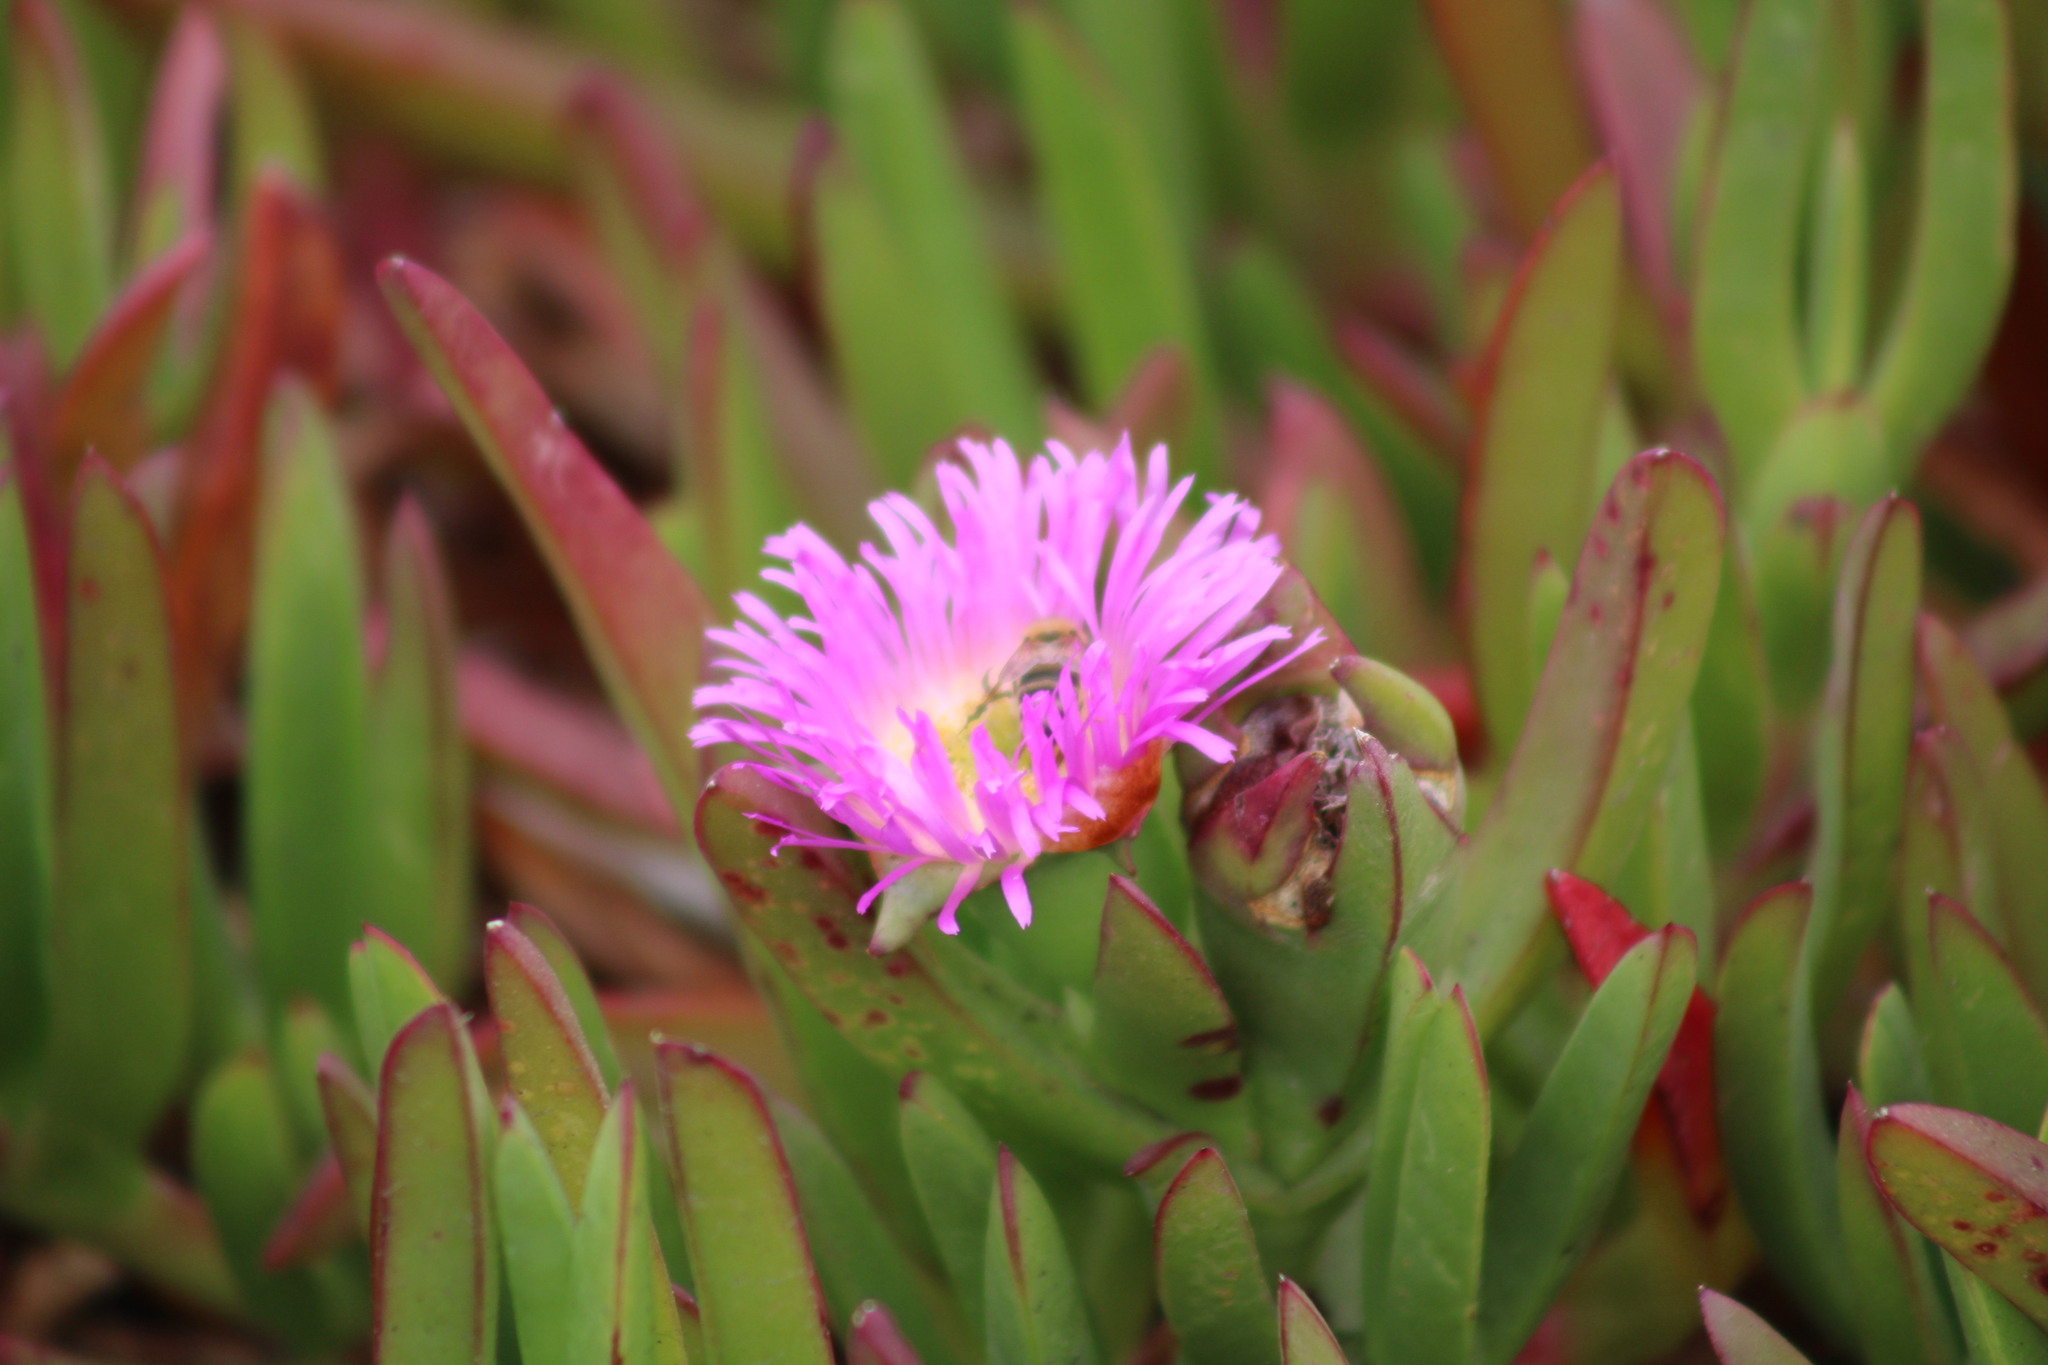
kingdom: Plantae
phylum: Tracheophyta
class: Magnoliopsida
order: Caryophyllales
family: Aizoaceae
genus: Carpobrotus
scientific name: Carpobrotus chilensis
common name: Sea fig
